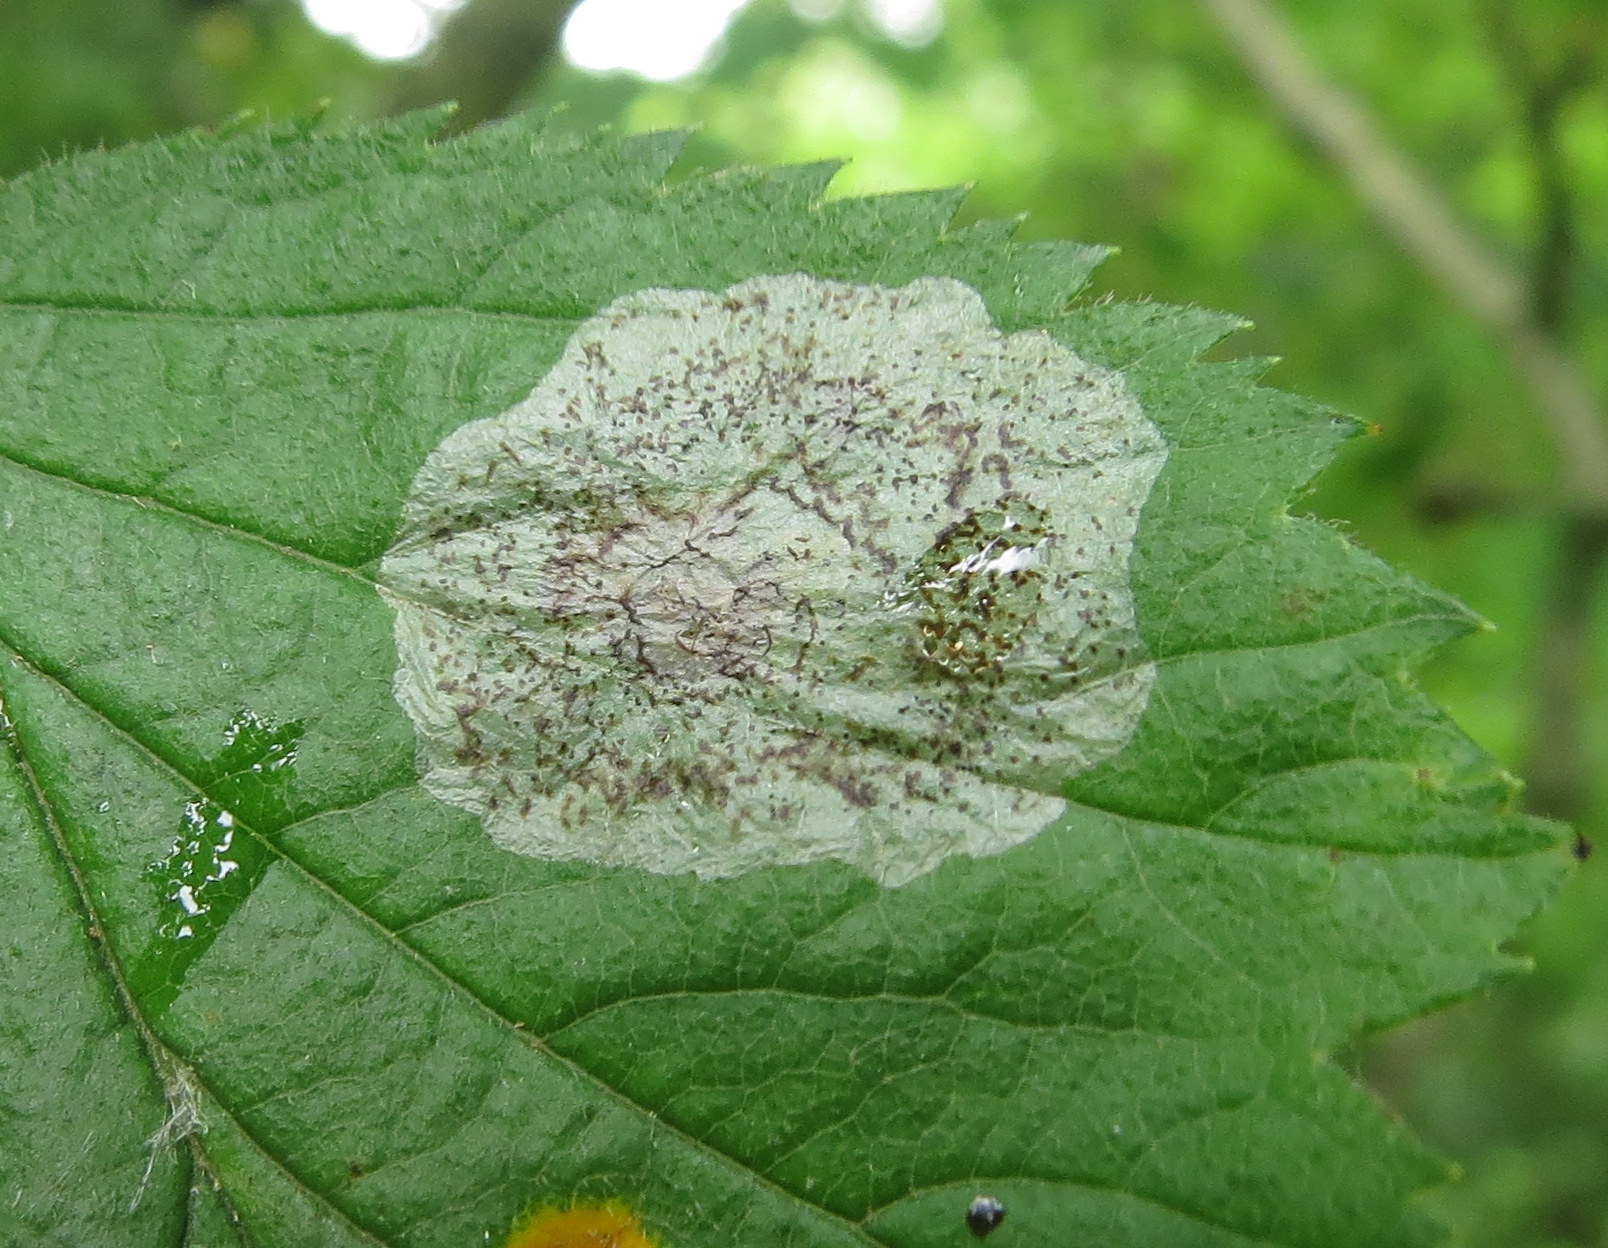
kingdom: Animalia
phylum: Arthropoda
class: Insecta
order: Lepidoptera
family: Gracillariidae
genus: Parornix
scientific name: Parornix inusitatumella
